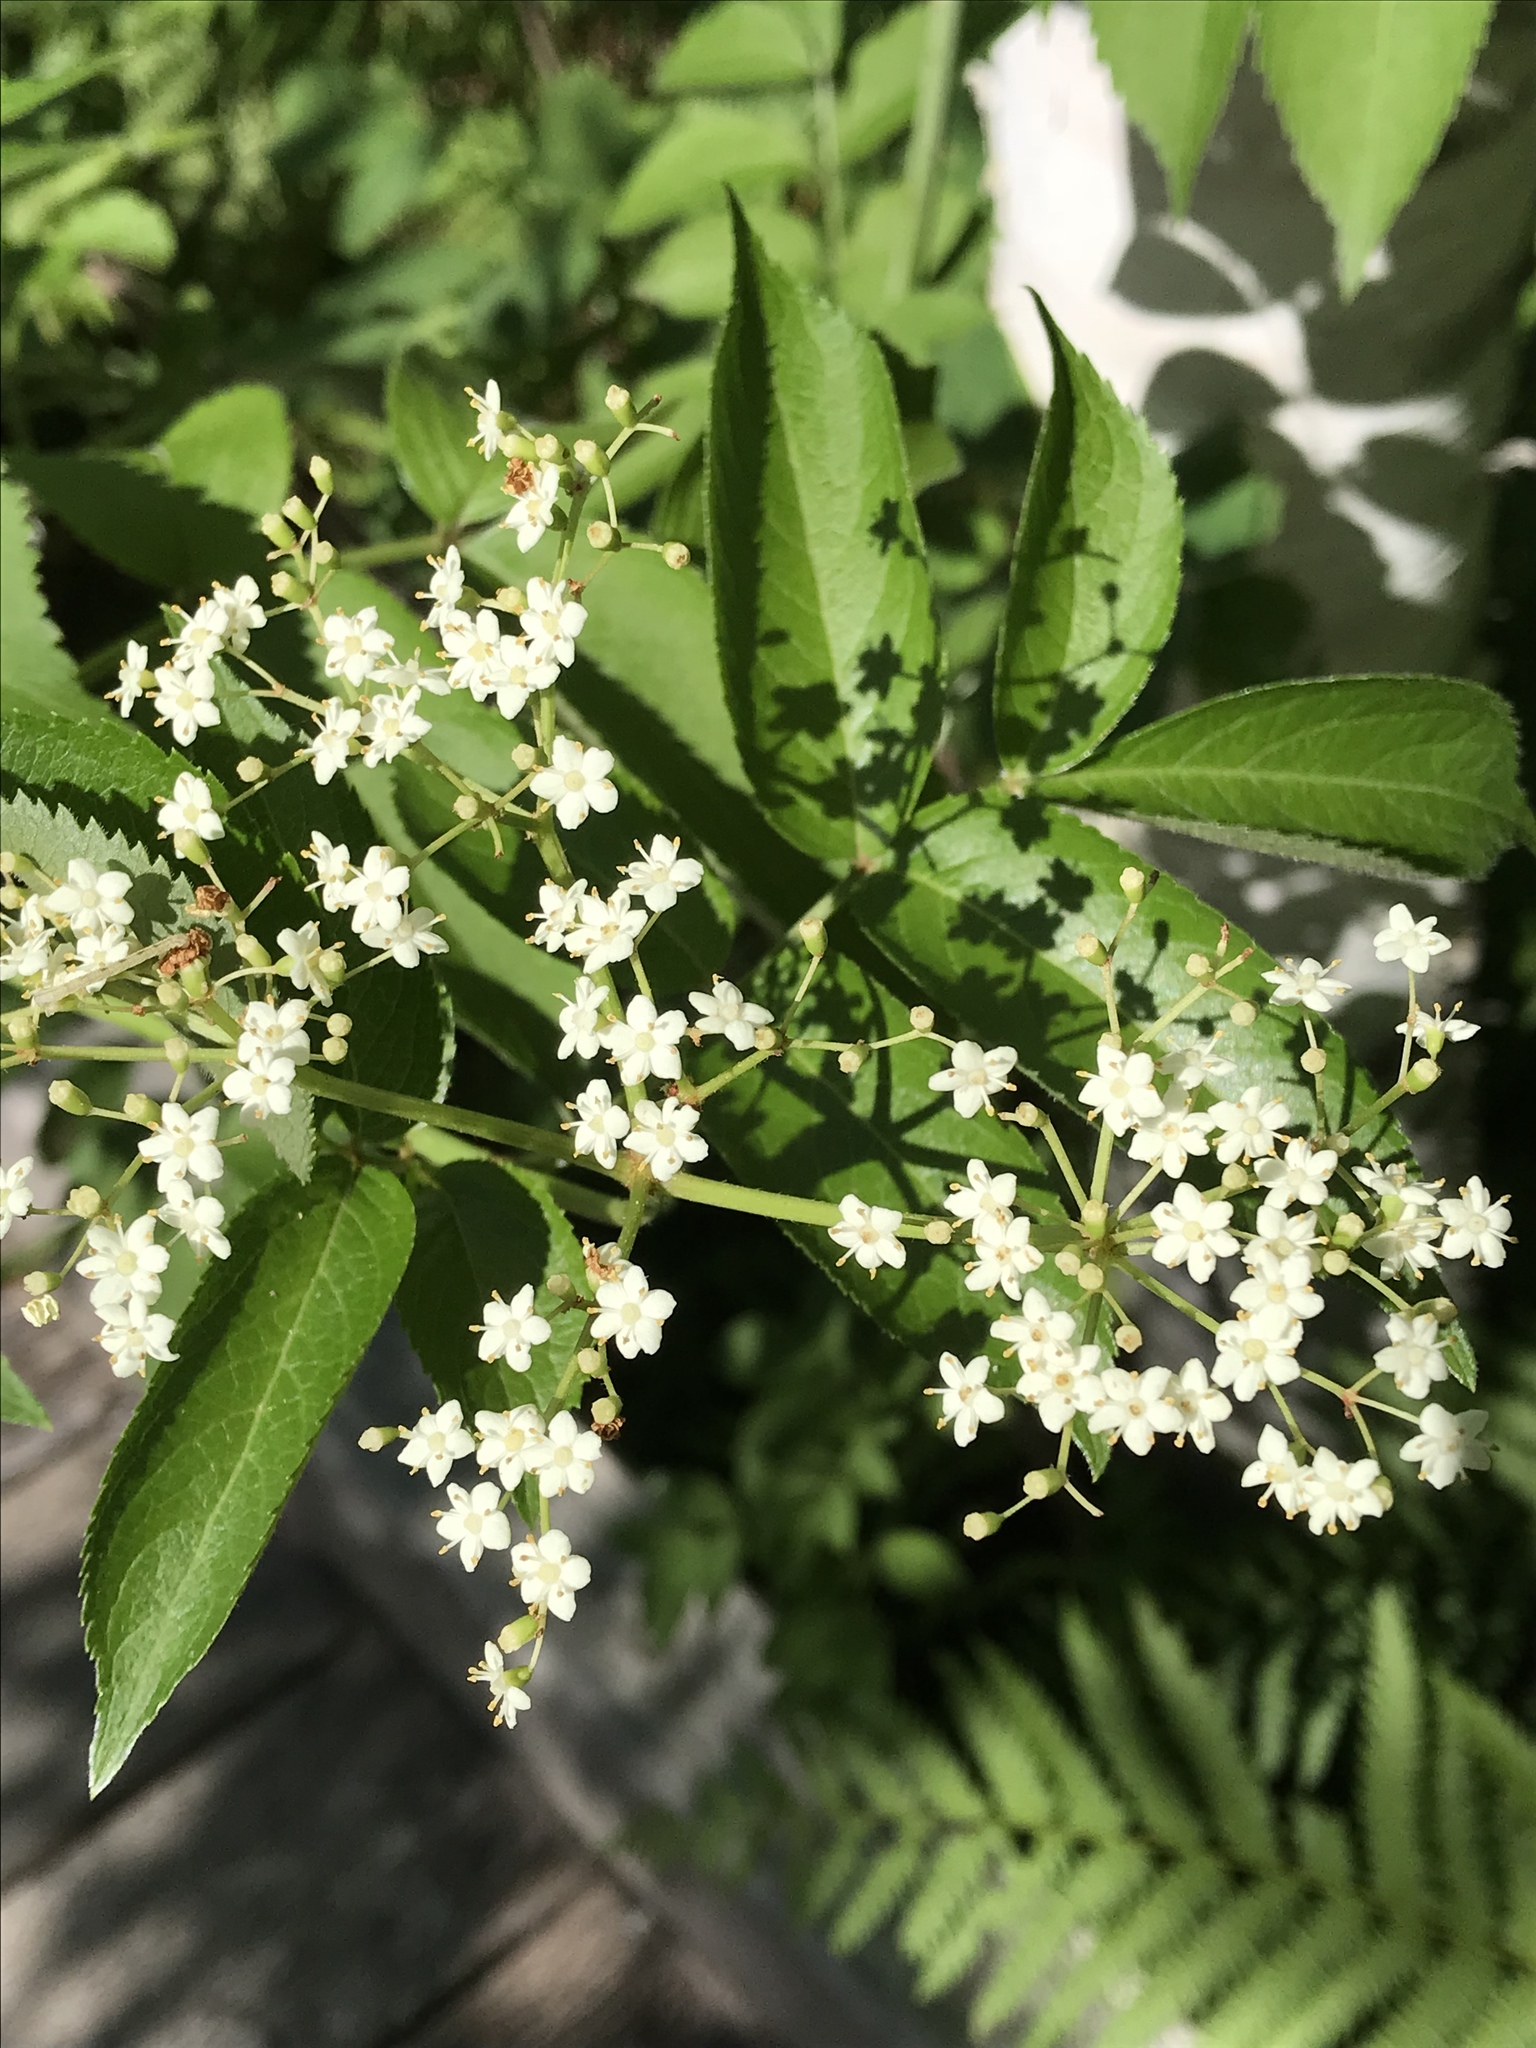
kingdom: Plantae
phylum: Tracheophyta
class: Magnoliopsida
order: Dipsacales
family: Viburnaceae
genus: Sambucus
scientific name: Sambucus canadensis
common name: American elder
